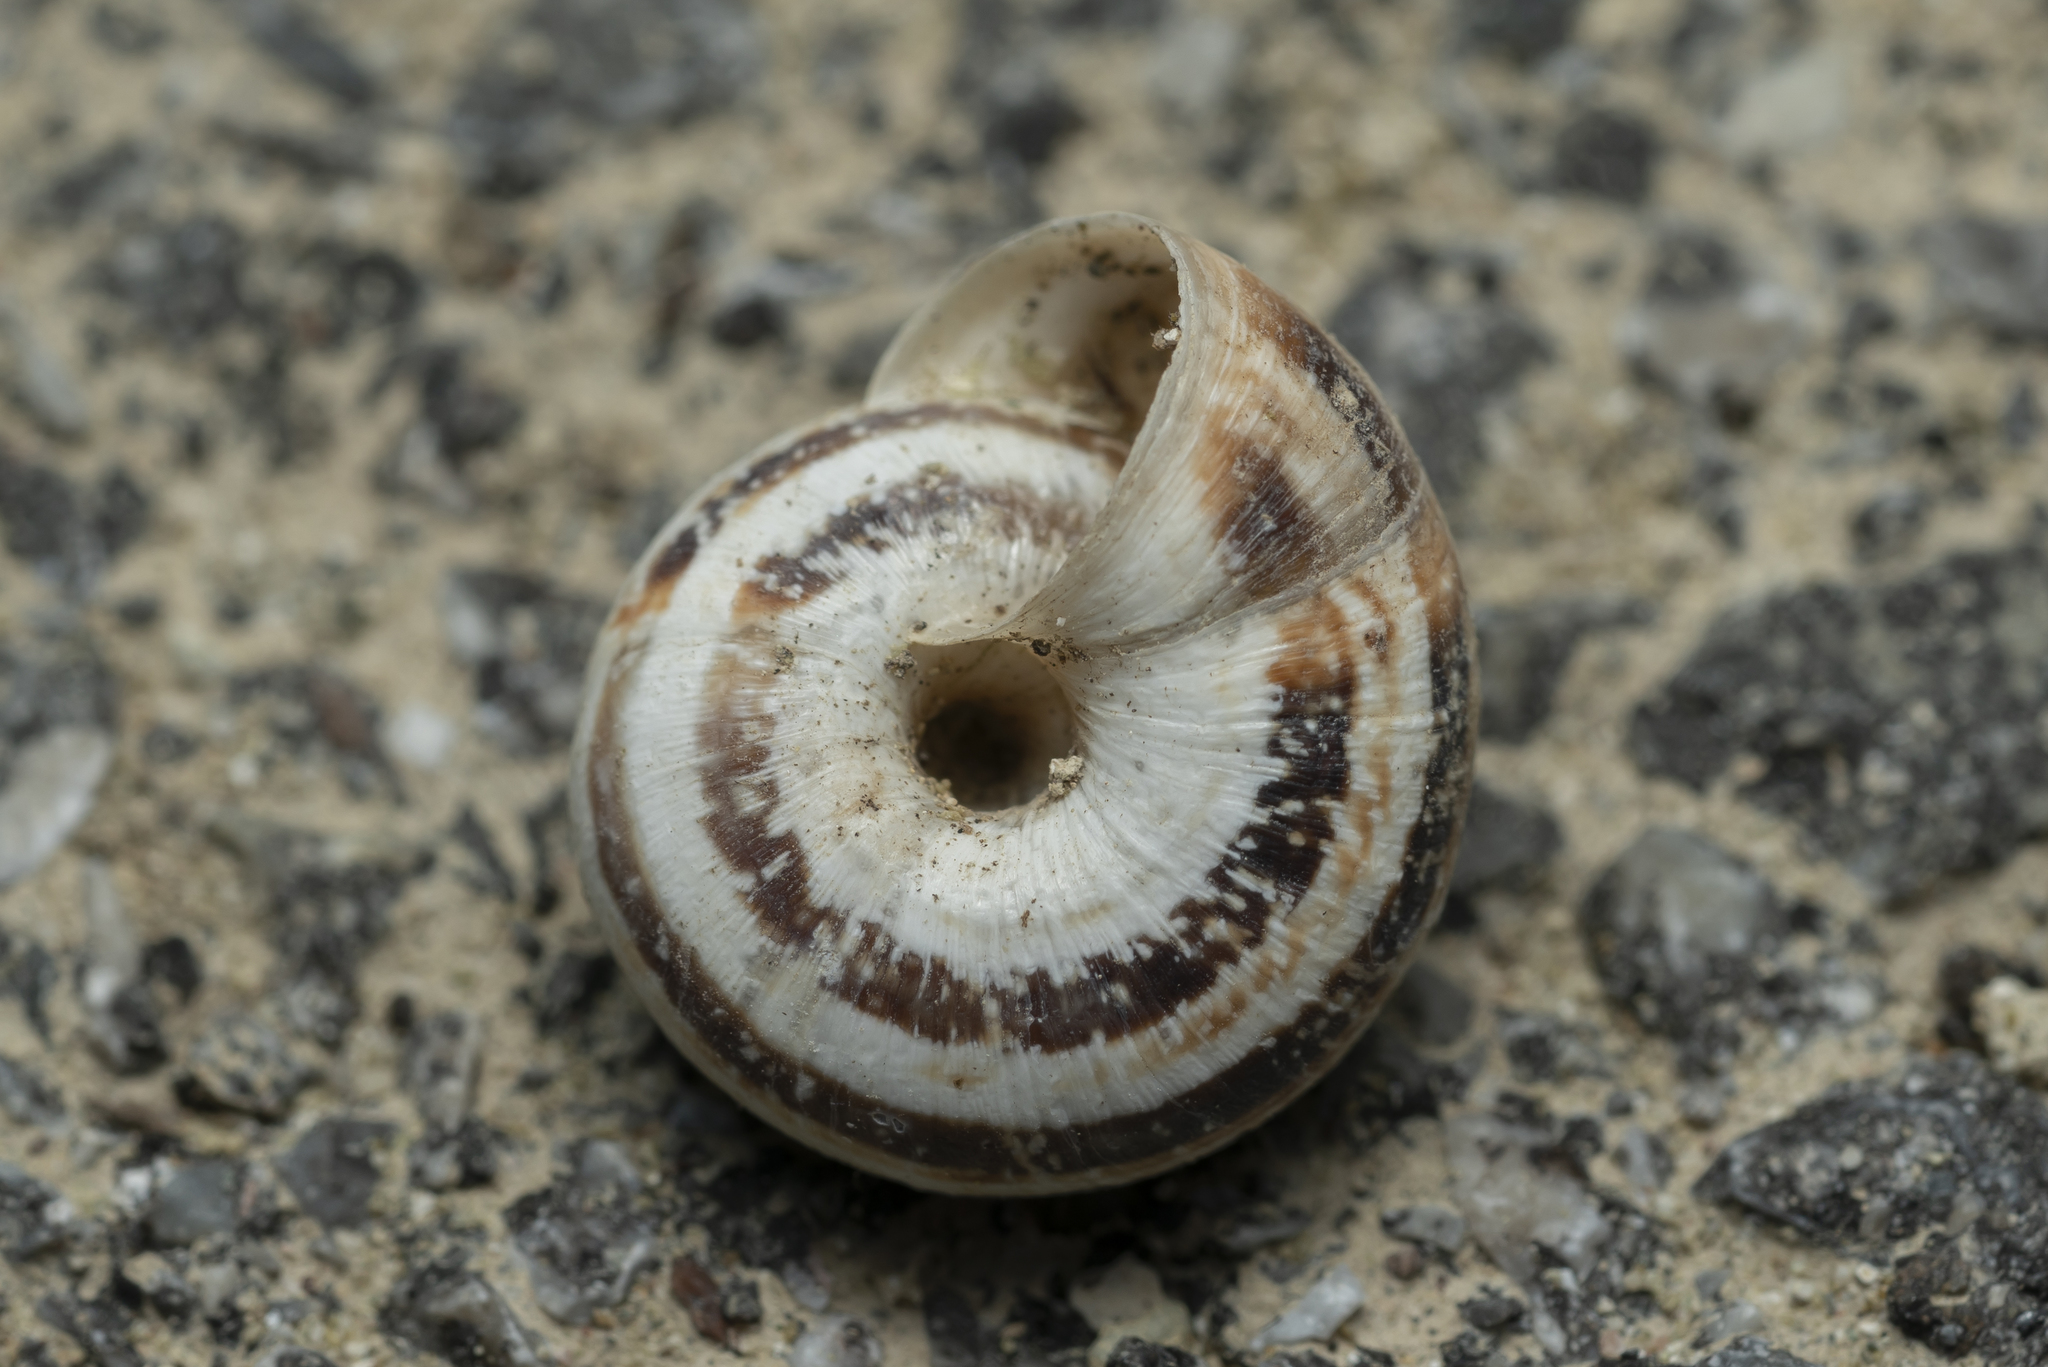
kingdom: Animalia
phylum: Mollusca
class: Gastropoda
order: Stylommatophora
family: Geomitridae
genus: Xerocrassa
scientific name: Xerocrassa cretica
